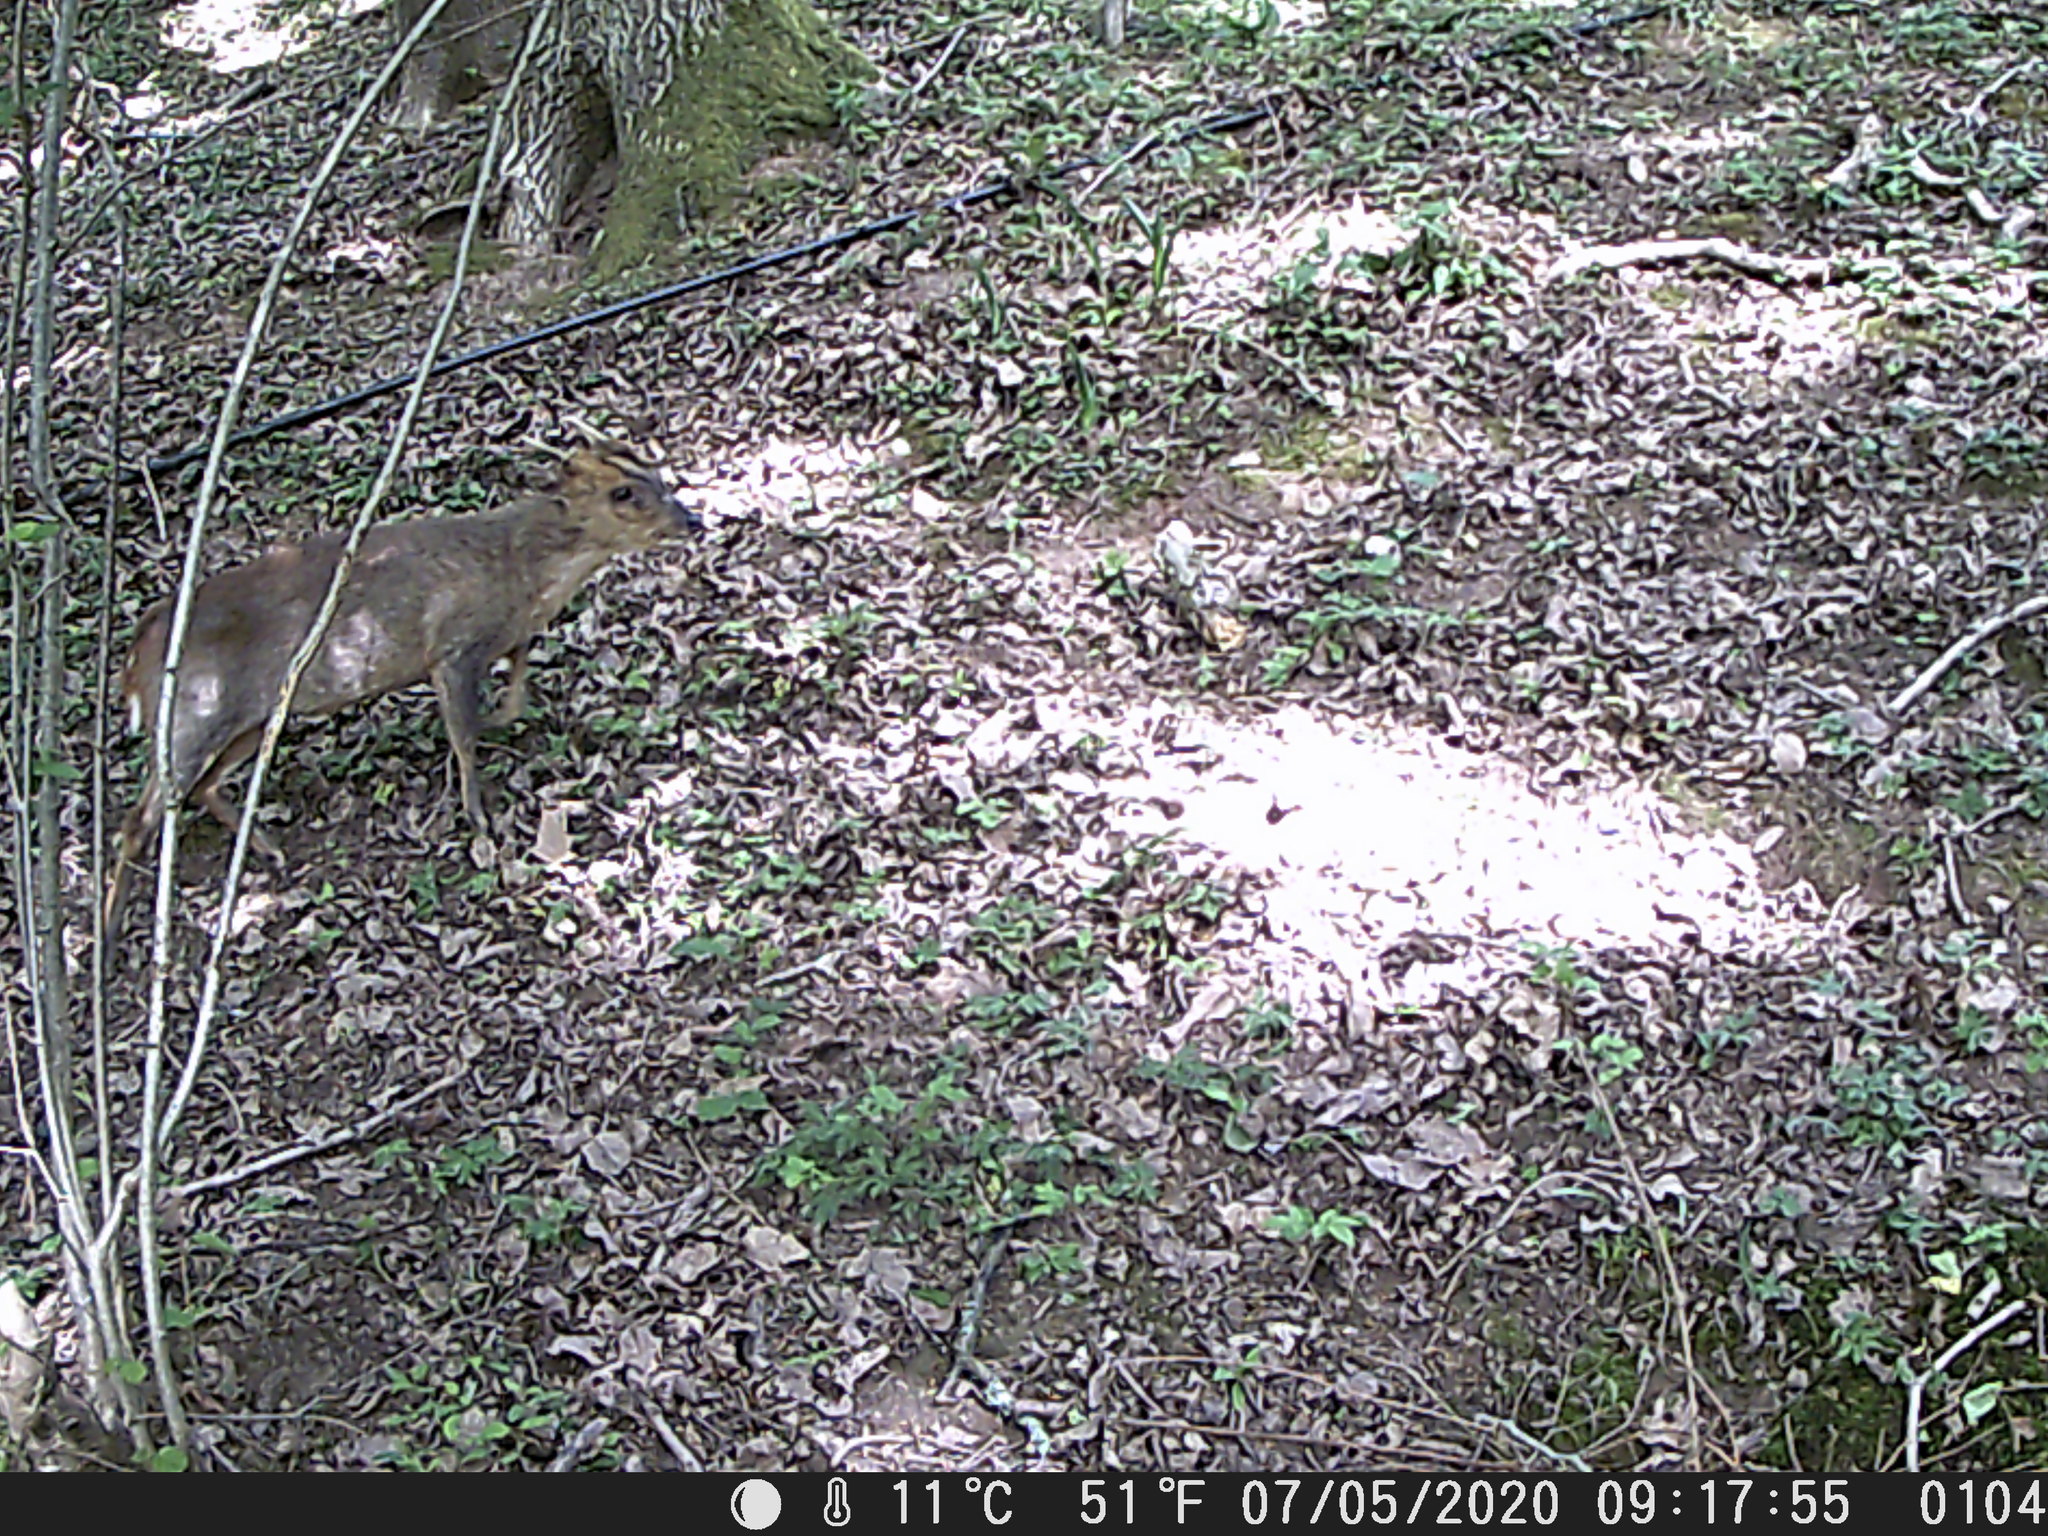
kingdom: Animalia
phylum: Chordata
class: Mammalia
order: Artiodactyla
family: Cervidae
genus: Muntiacus
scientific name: Muntiacus reevesi
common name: Reeves' muntjac
